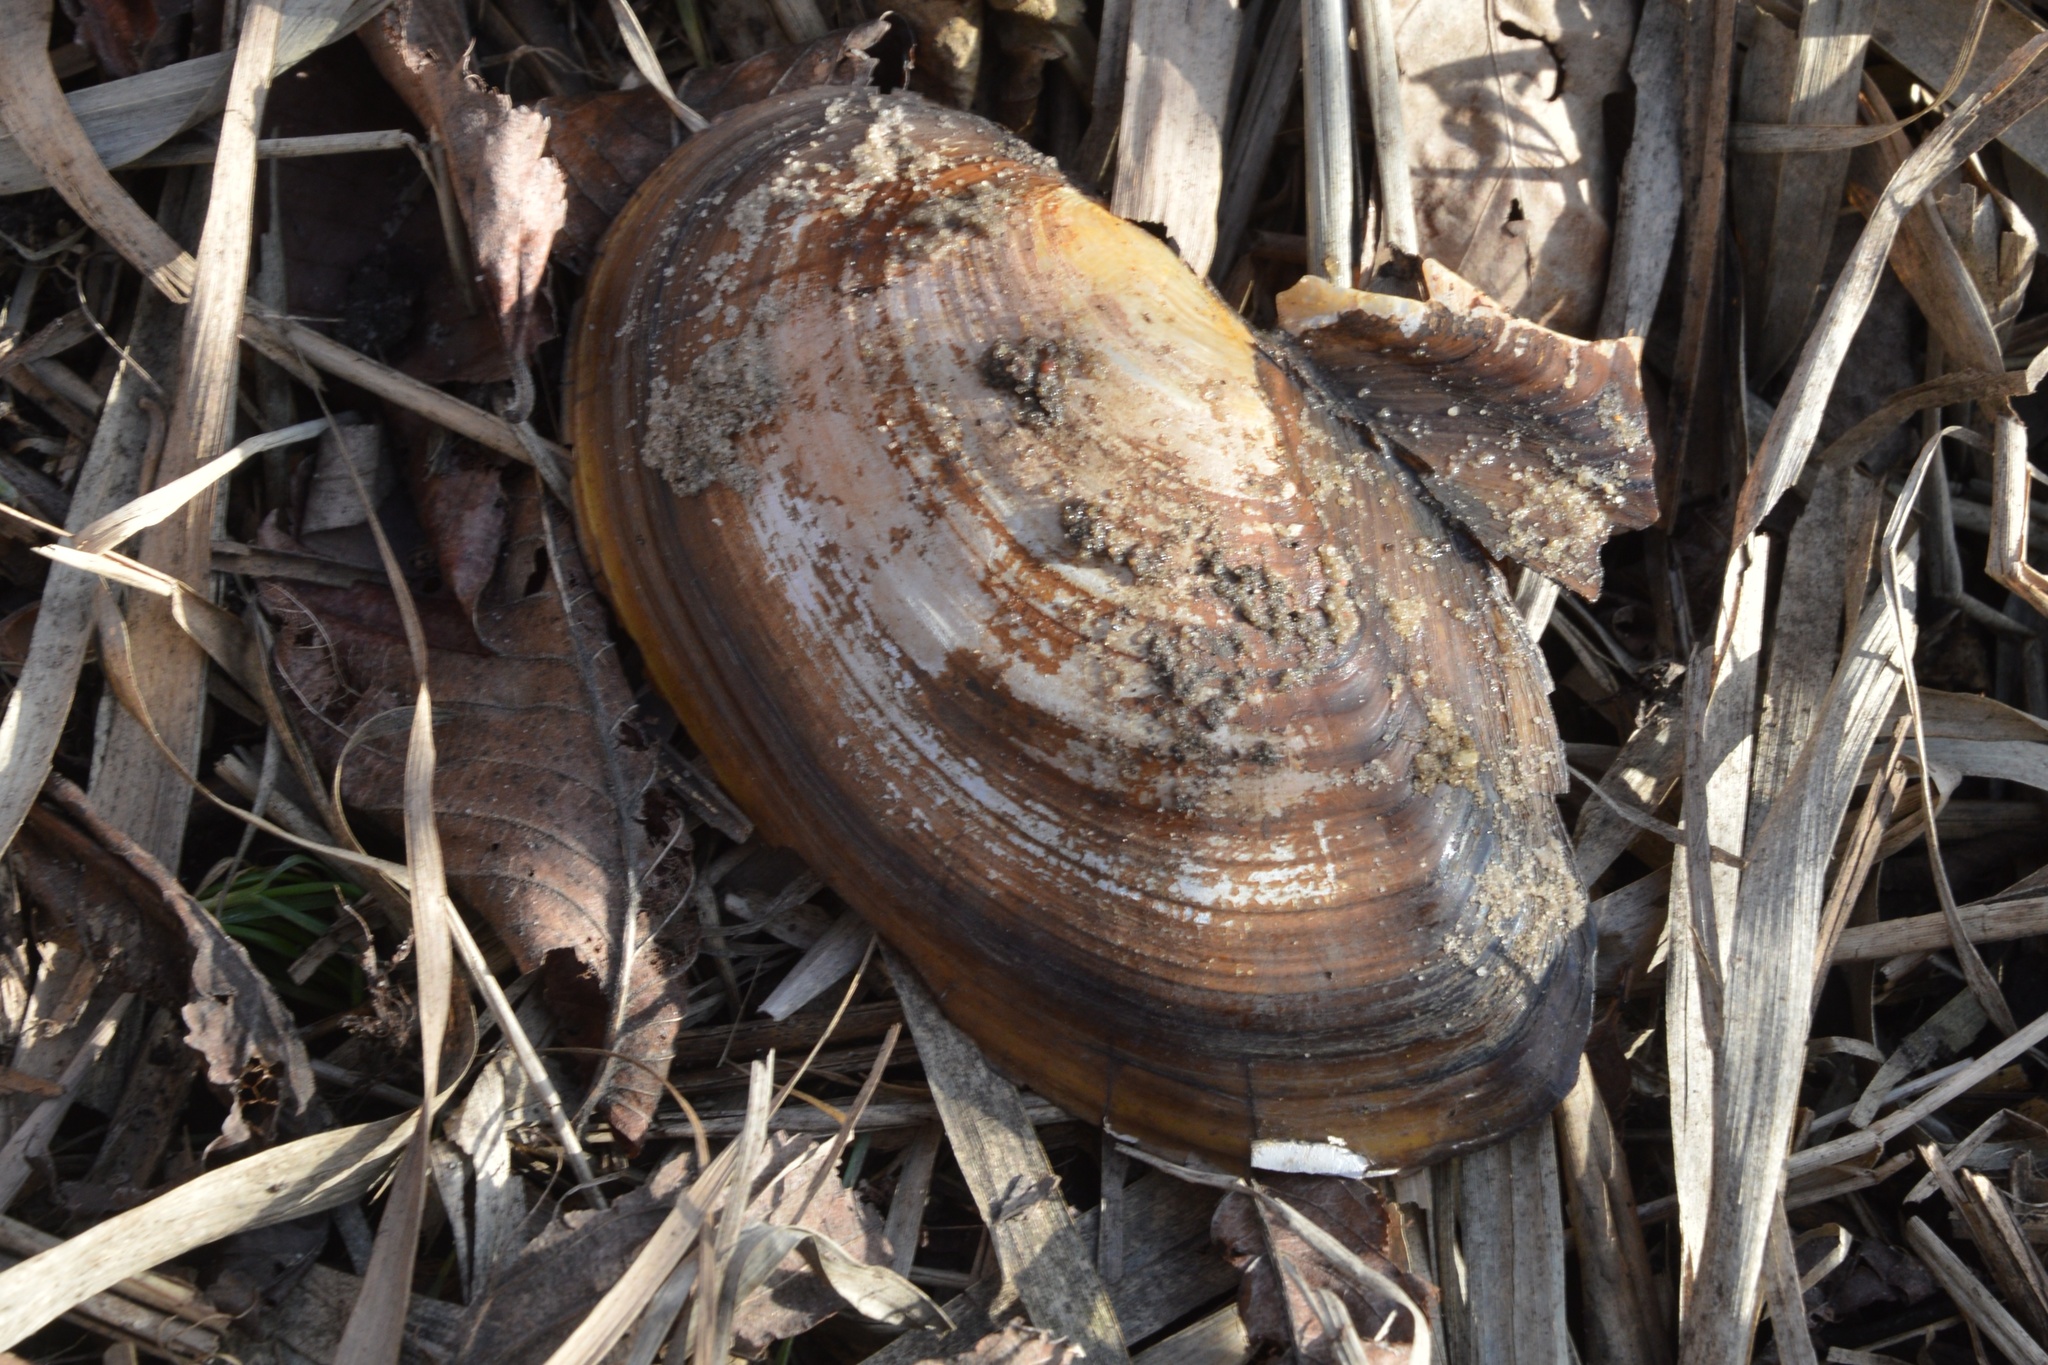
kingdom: Animalia
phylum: Mollusca
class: Bivalvia
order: Unionida
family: Unionidae
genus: Anodonta
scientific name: Anodonta cygnea
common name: Swan mussel
